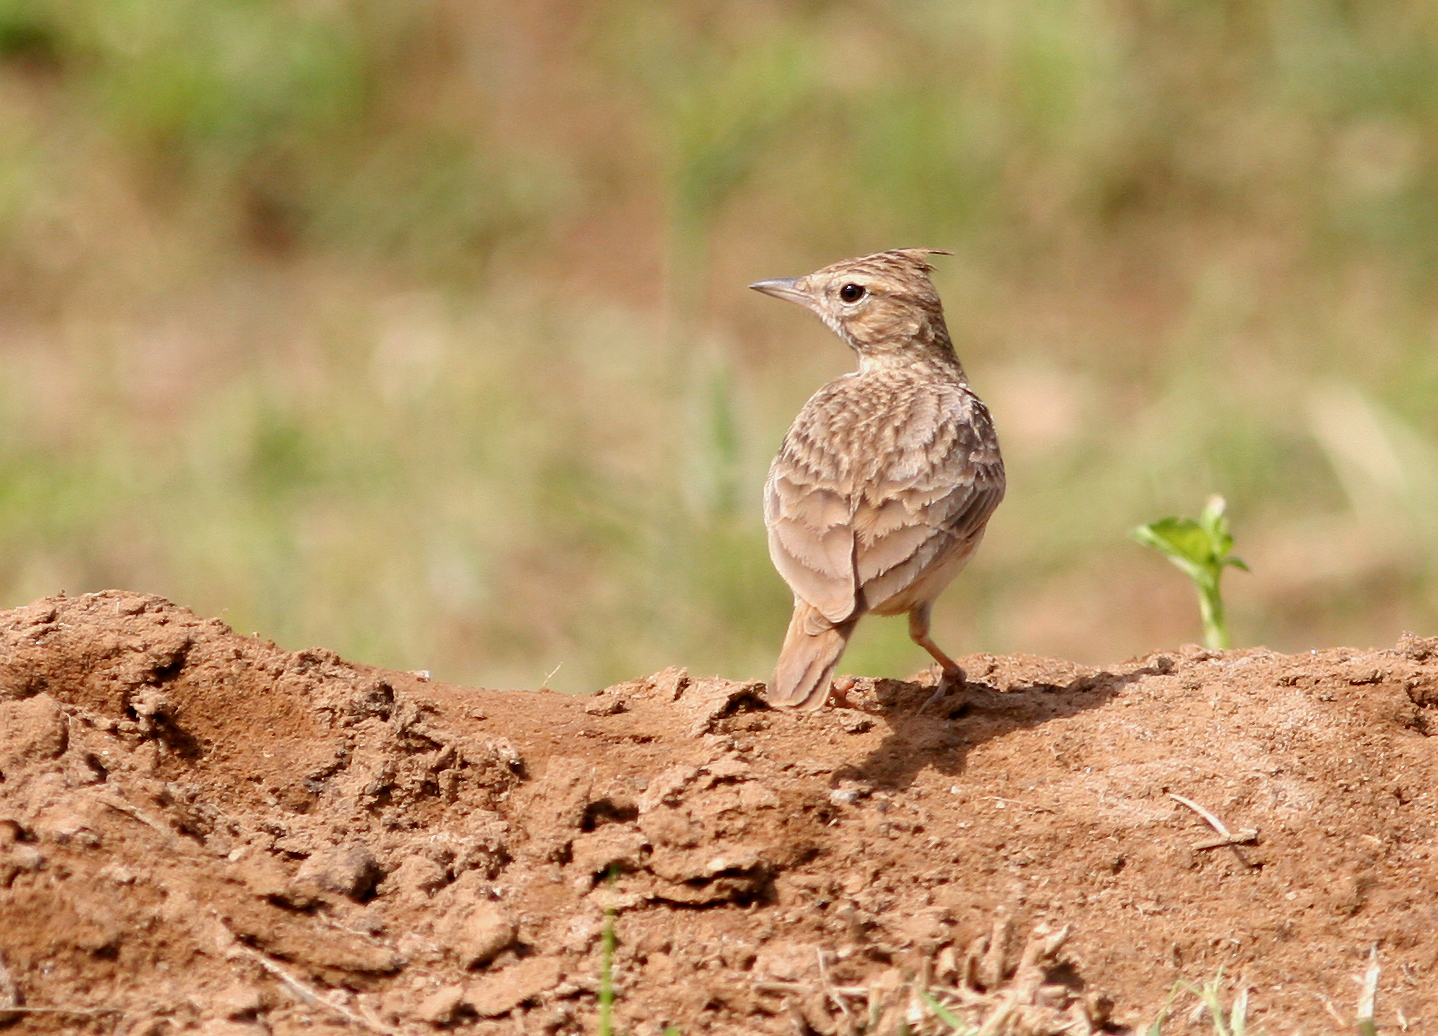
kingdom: Animalia
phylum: Chordata
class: Aves
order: Passeriformes
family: Alaudidae
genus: Galerida
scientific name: Galerida cristata
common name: Crested lark
